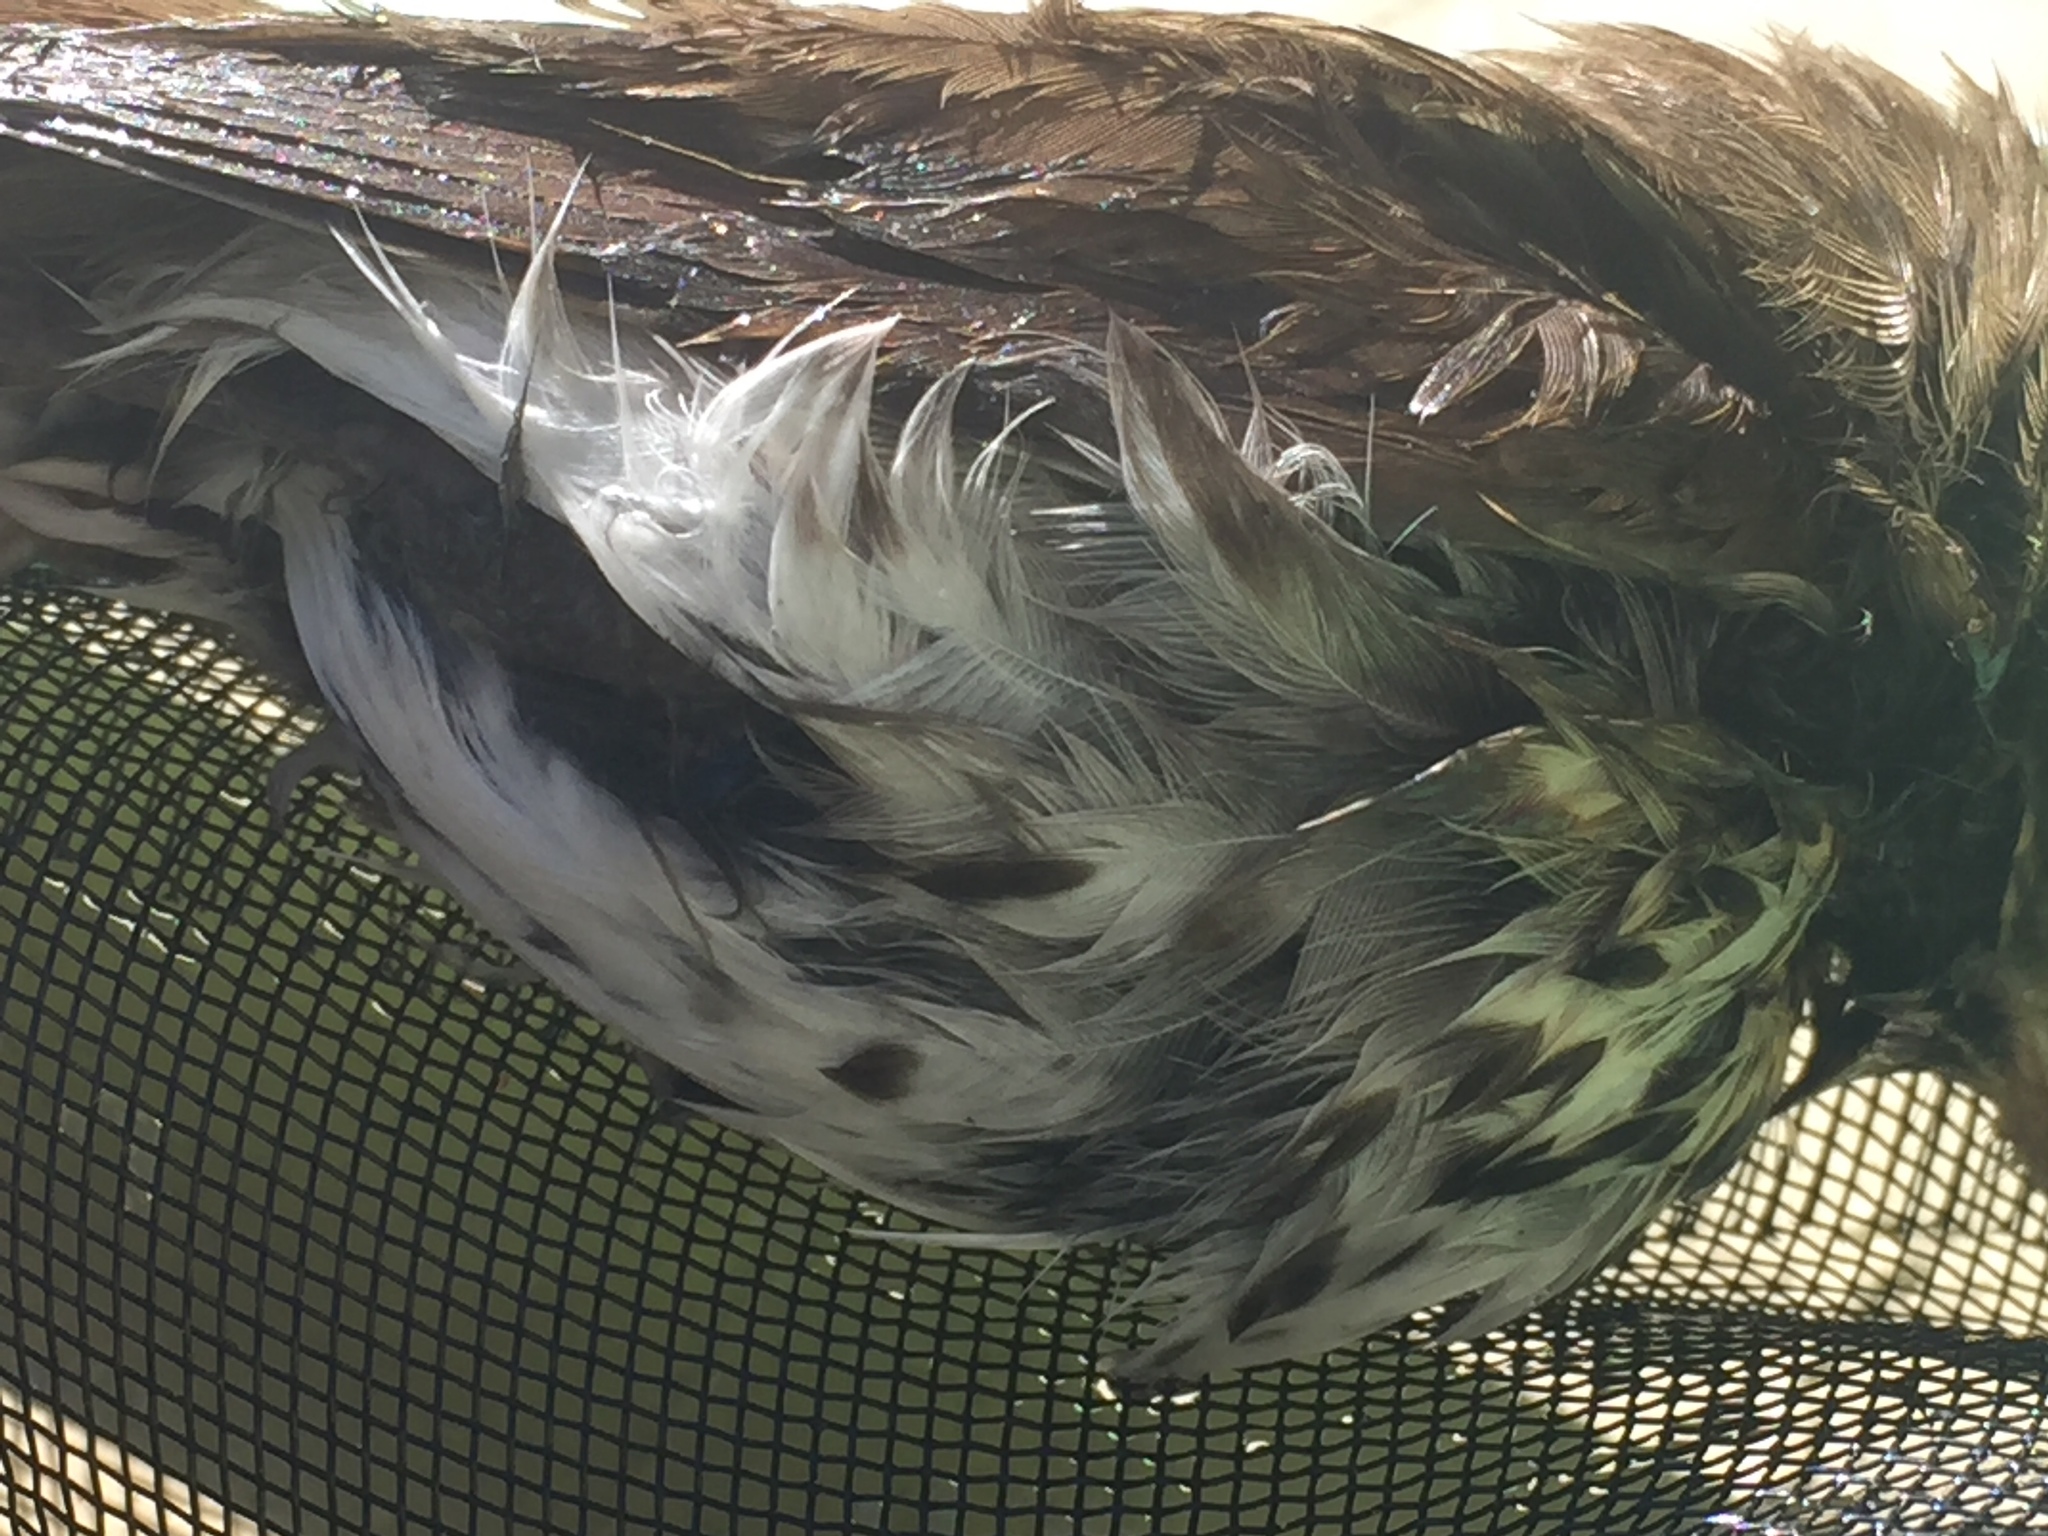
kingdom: Animalia
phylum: Chordata
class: Aves
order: Passeriformes
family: Turdidae
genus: Catharus
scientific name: Catharus guttatus
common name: Hermit thrush
